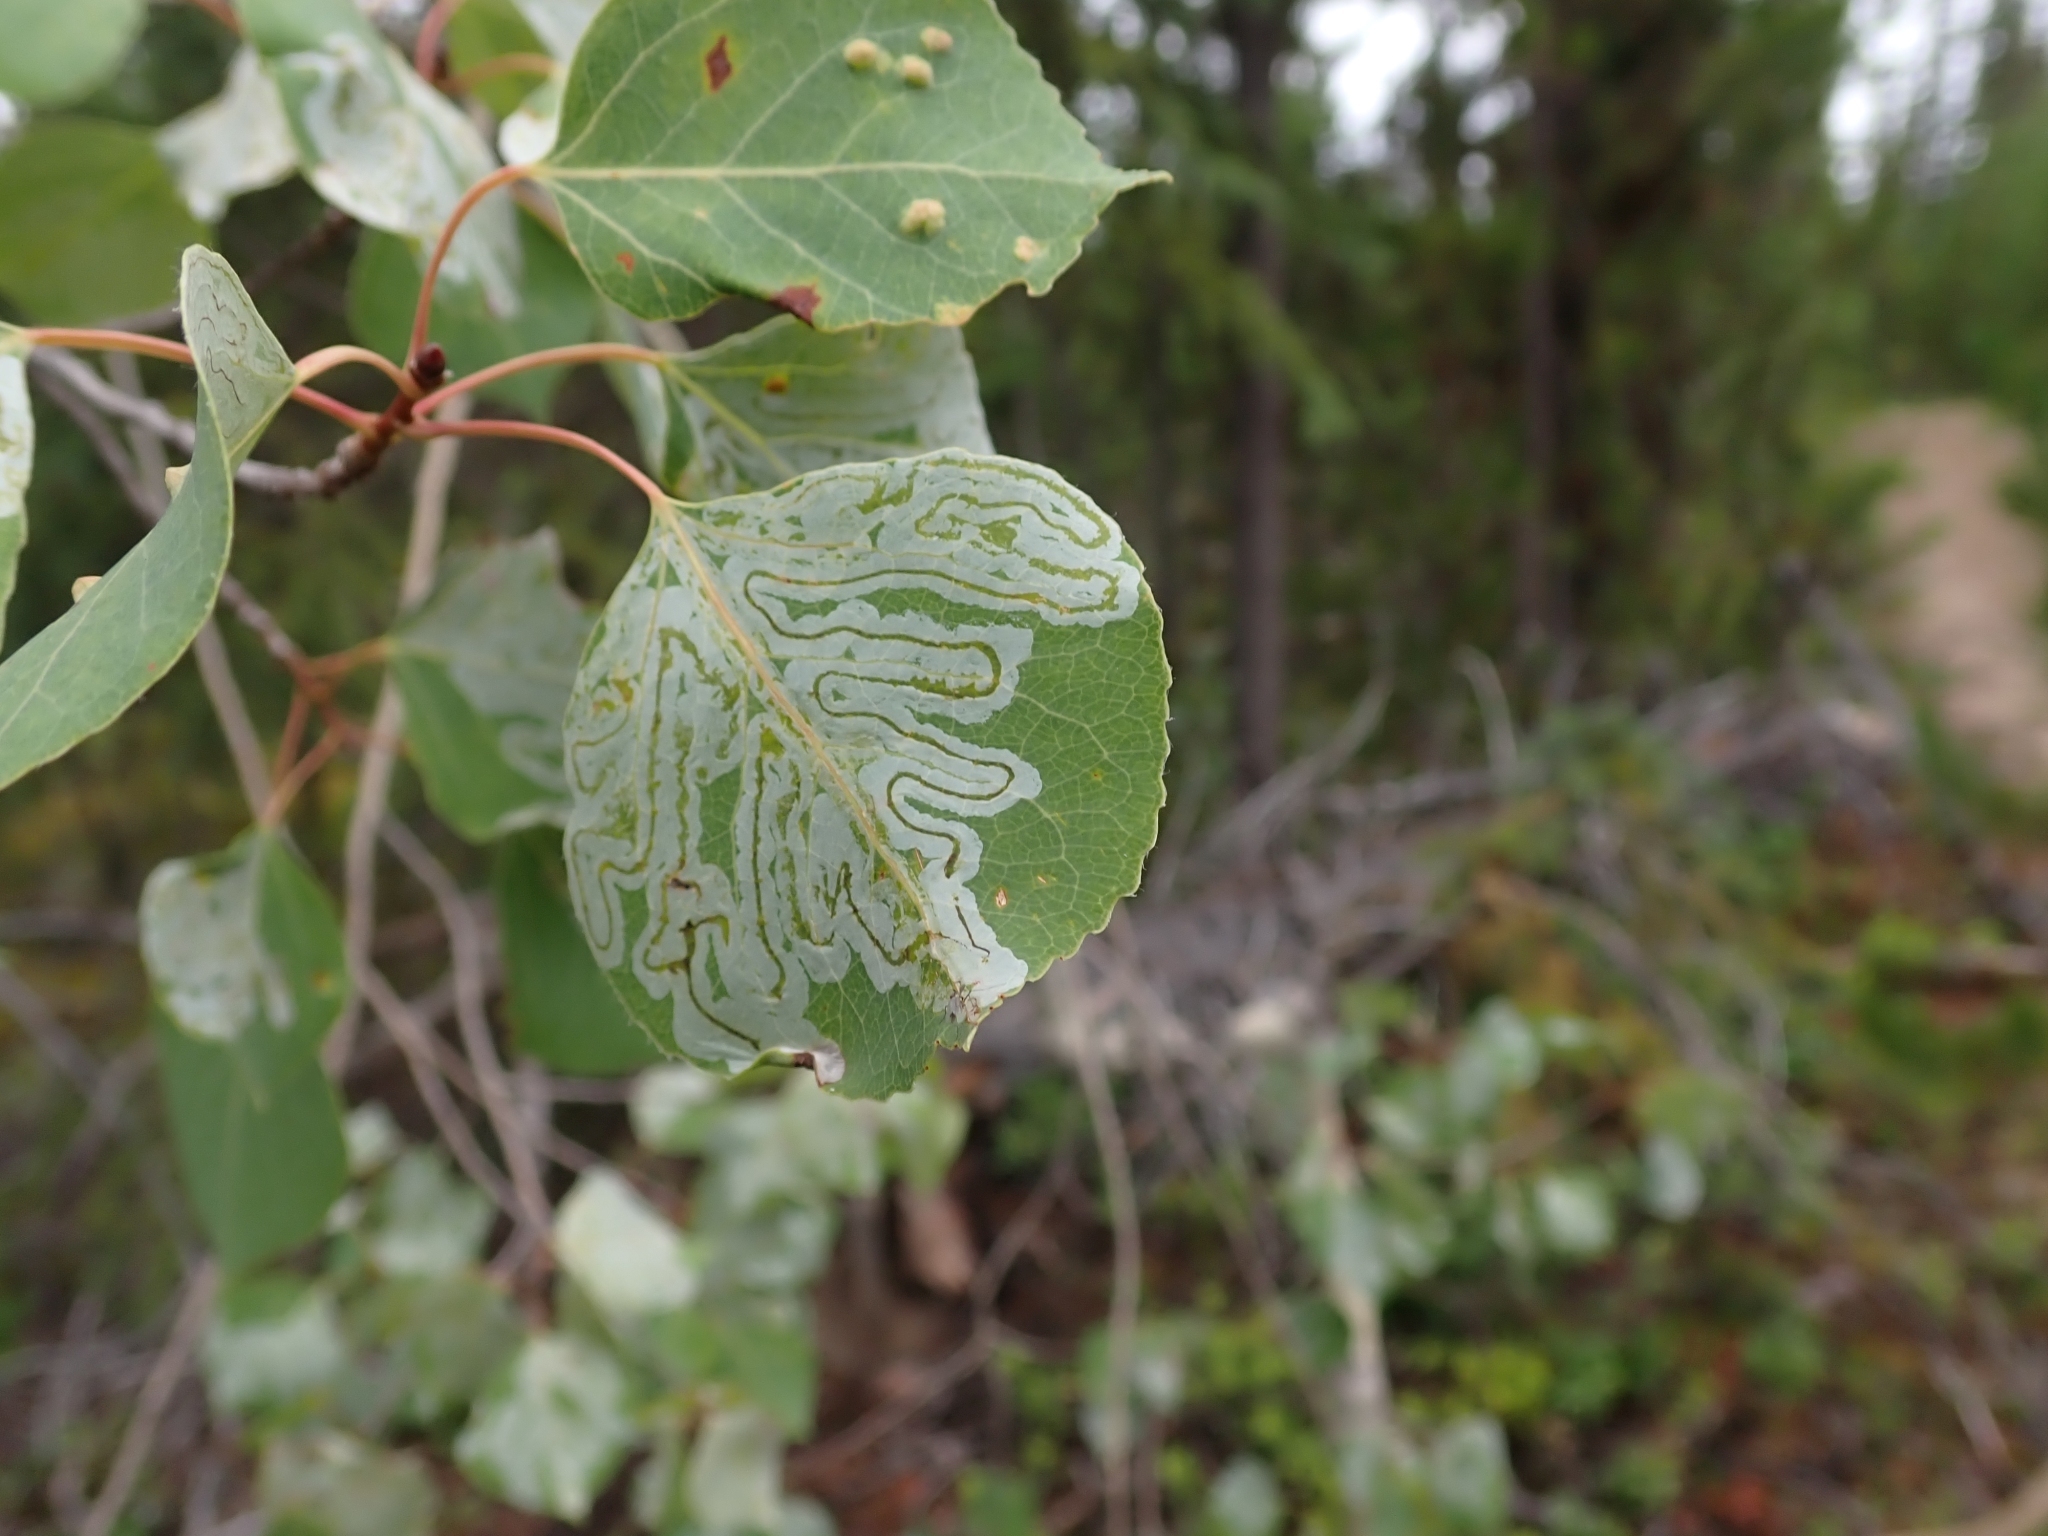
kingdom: Plantae
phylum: Tracheophyta
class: Magnoliopsida
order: Malpighiales
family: Salicaceae
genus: Populus
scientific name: Populus tremuloides
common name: Quaking aspen
